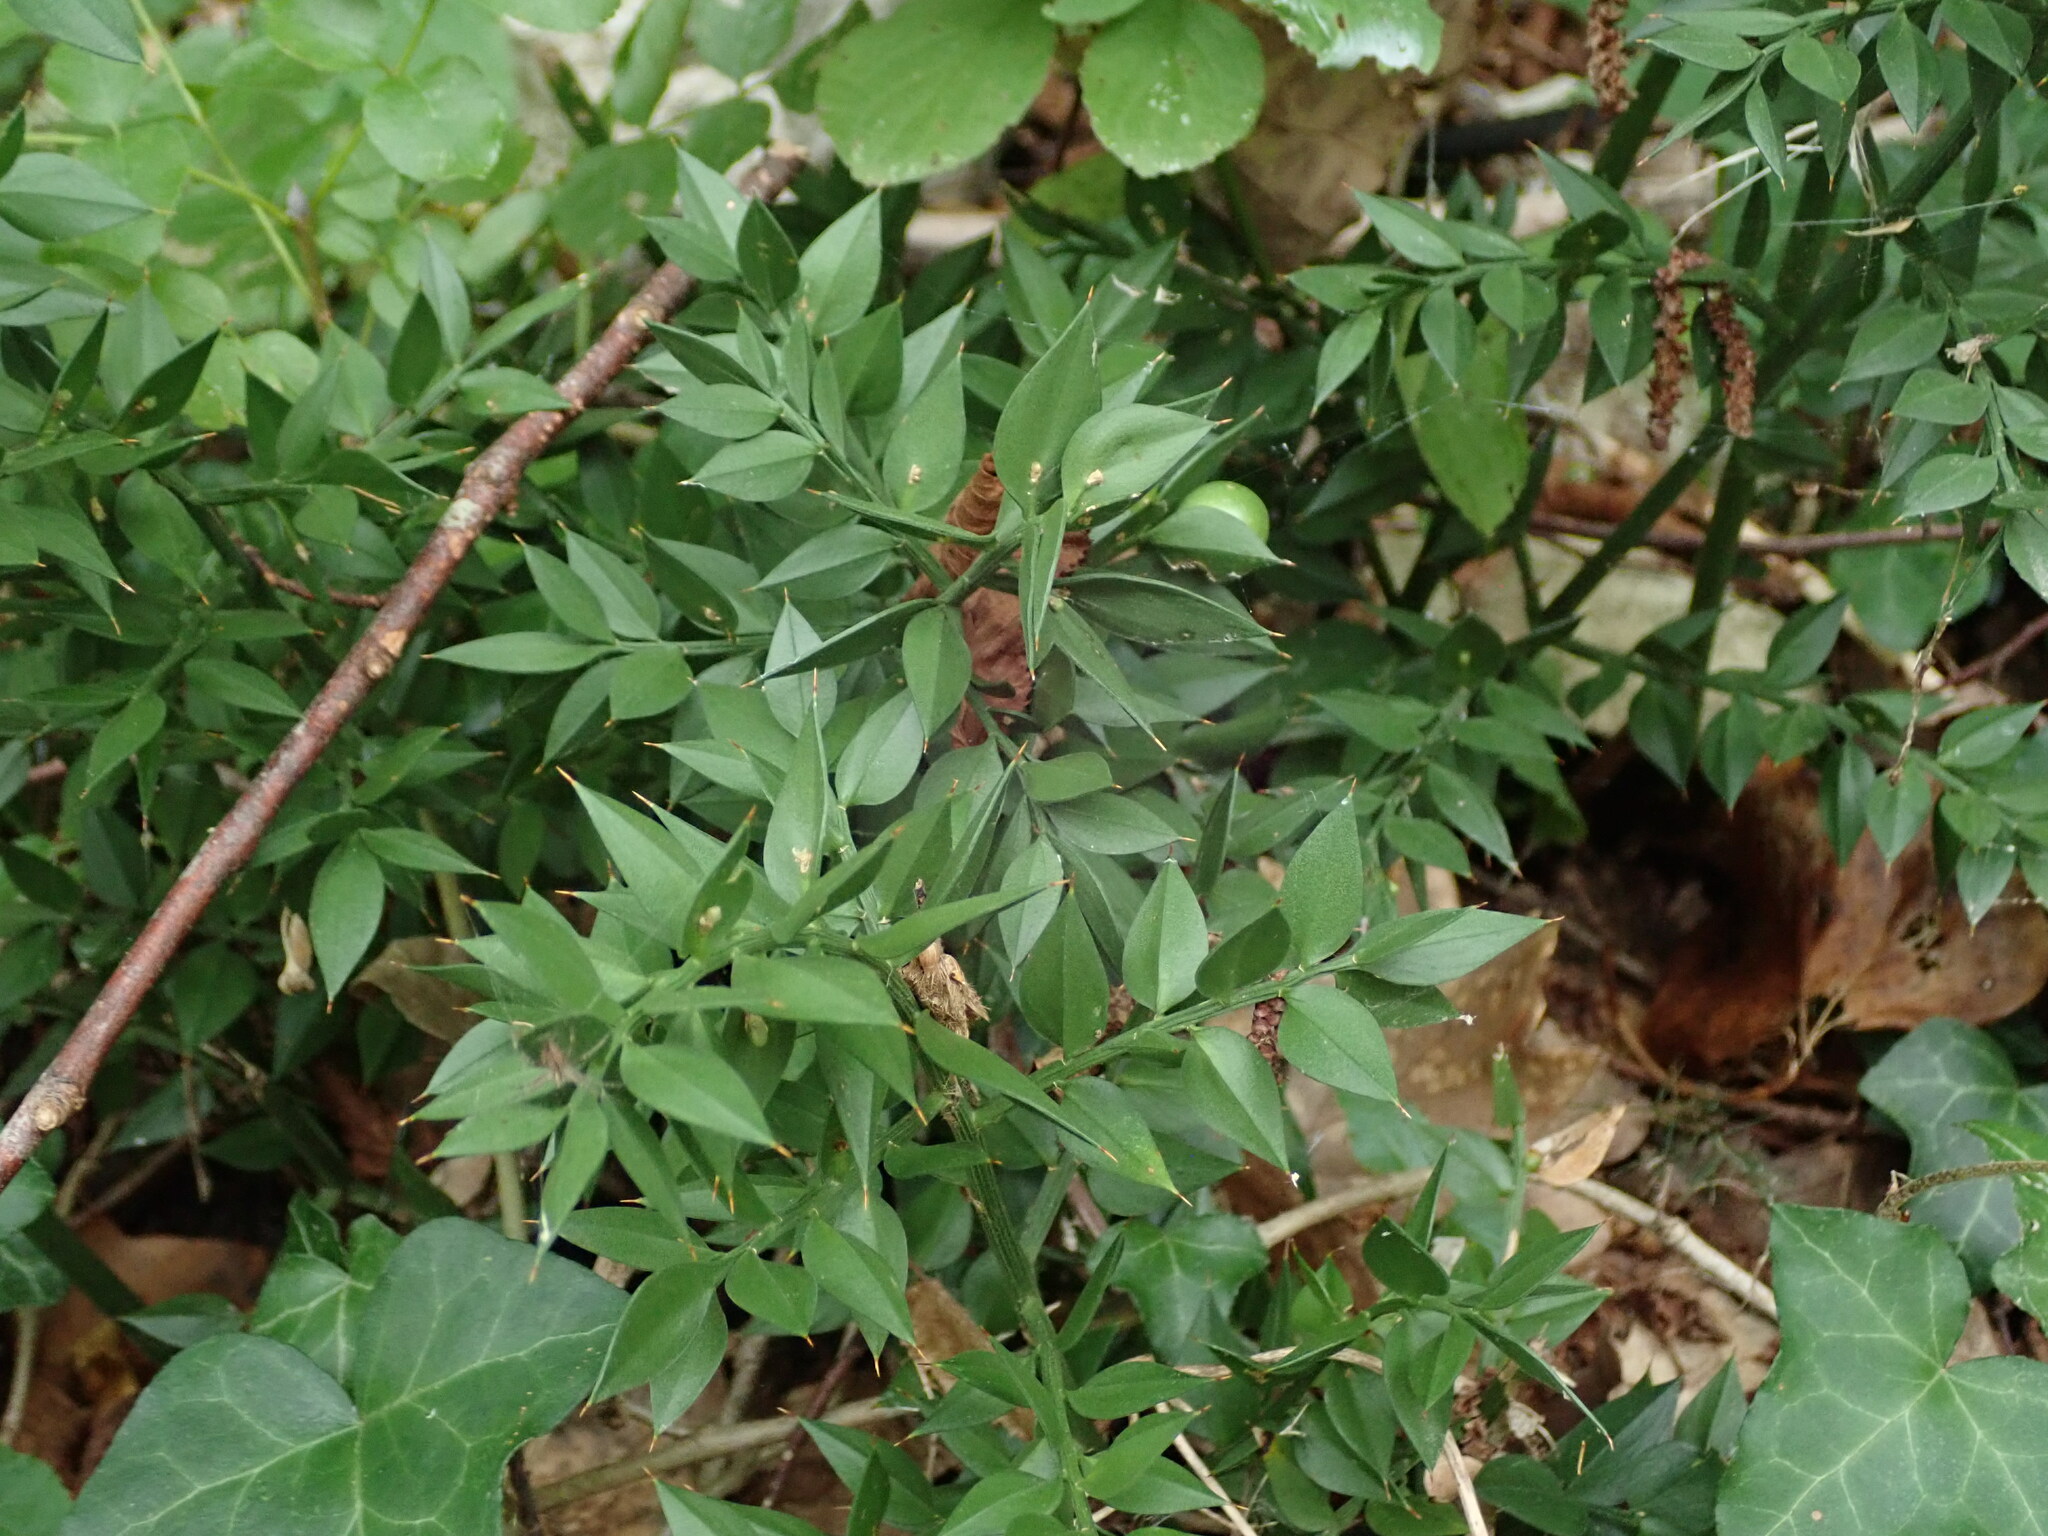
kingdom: Plantae
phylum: Tracheophyta
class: Liliopsida
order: Asparagales
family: Asparagaceae
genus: Ruscus
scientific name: Ruscus aculeatus
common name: Butcher's-broom
